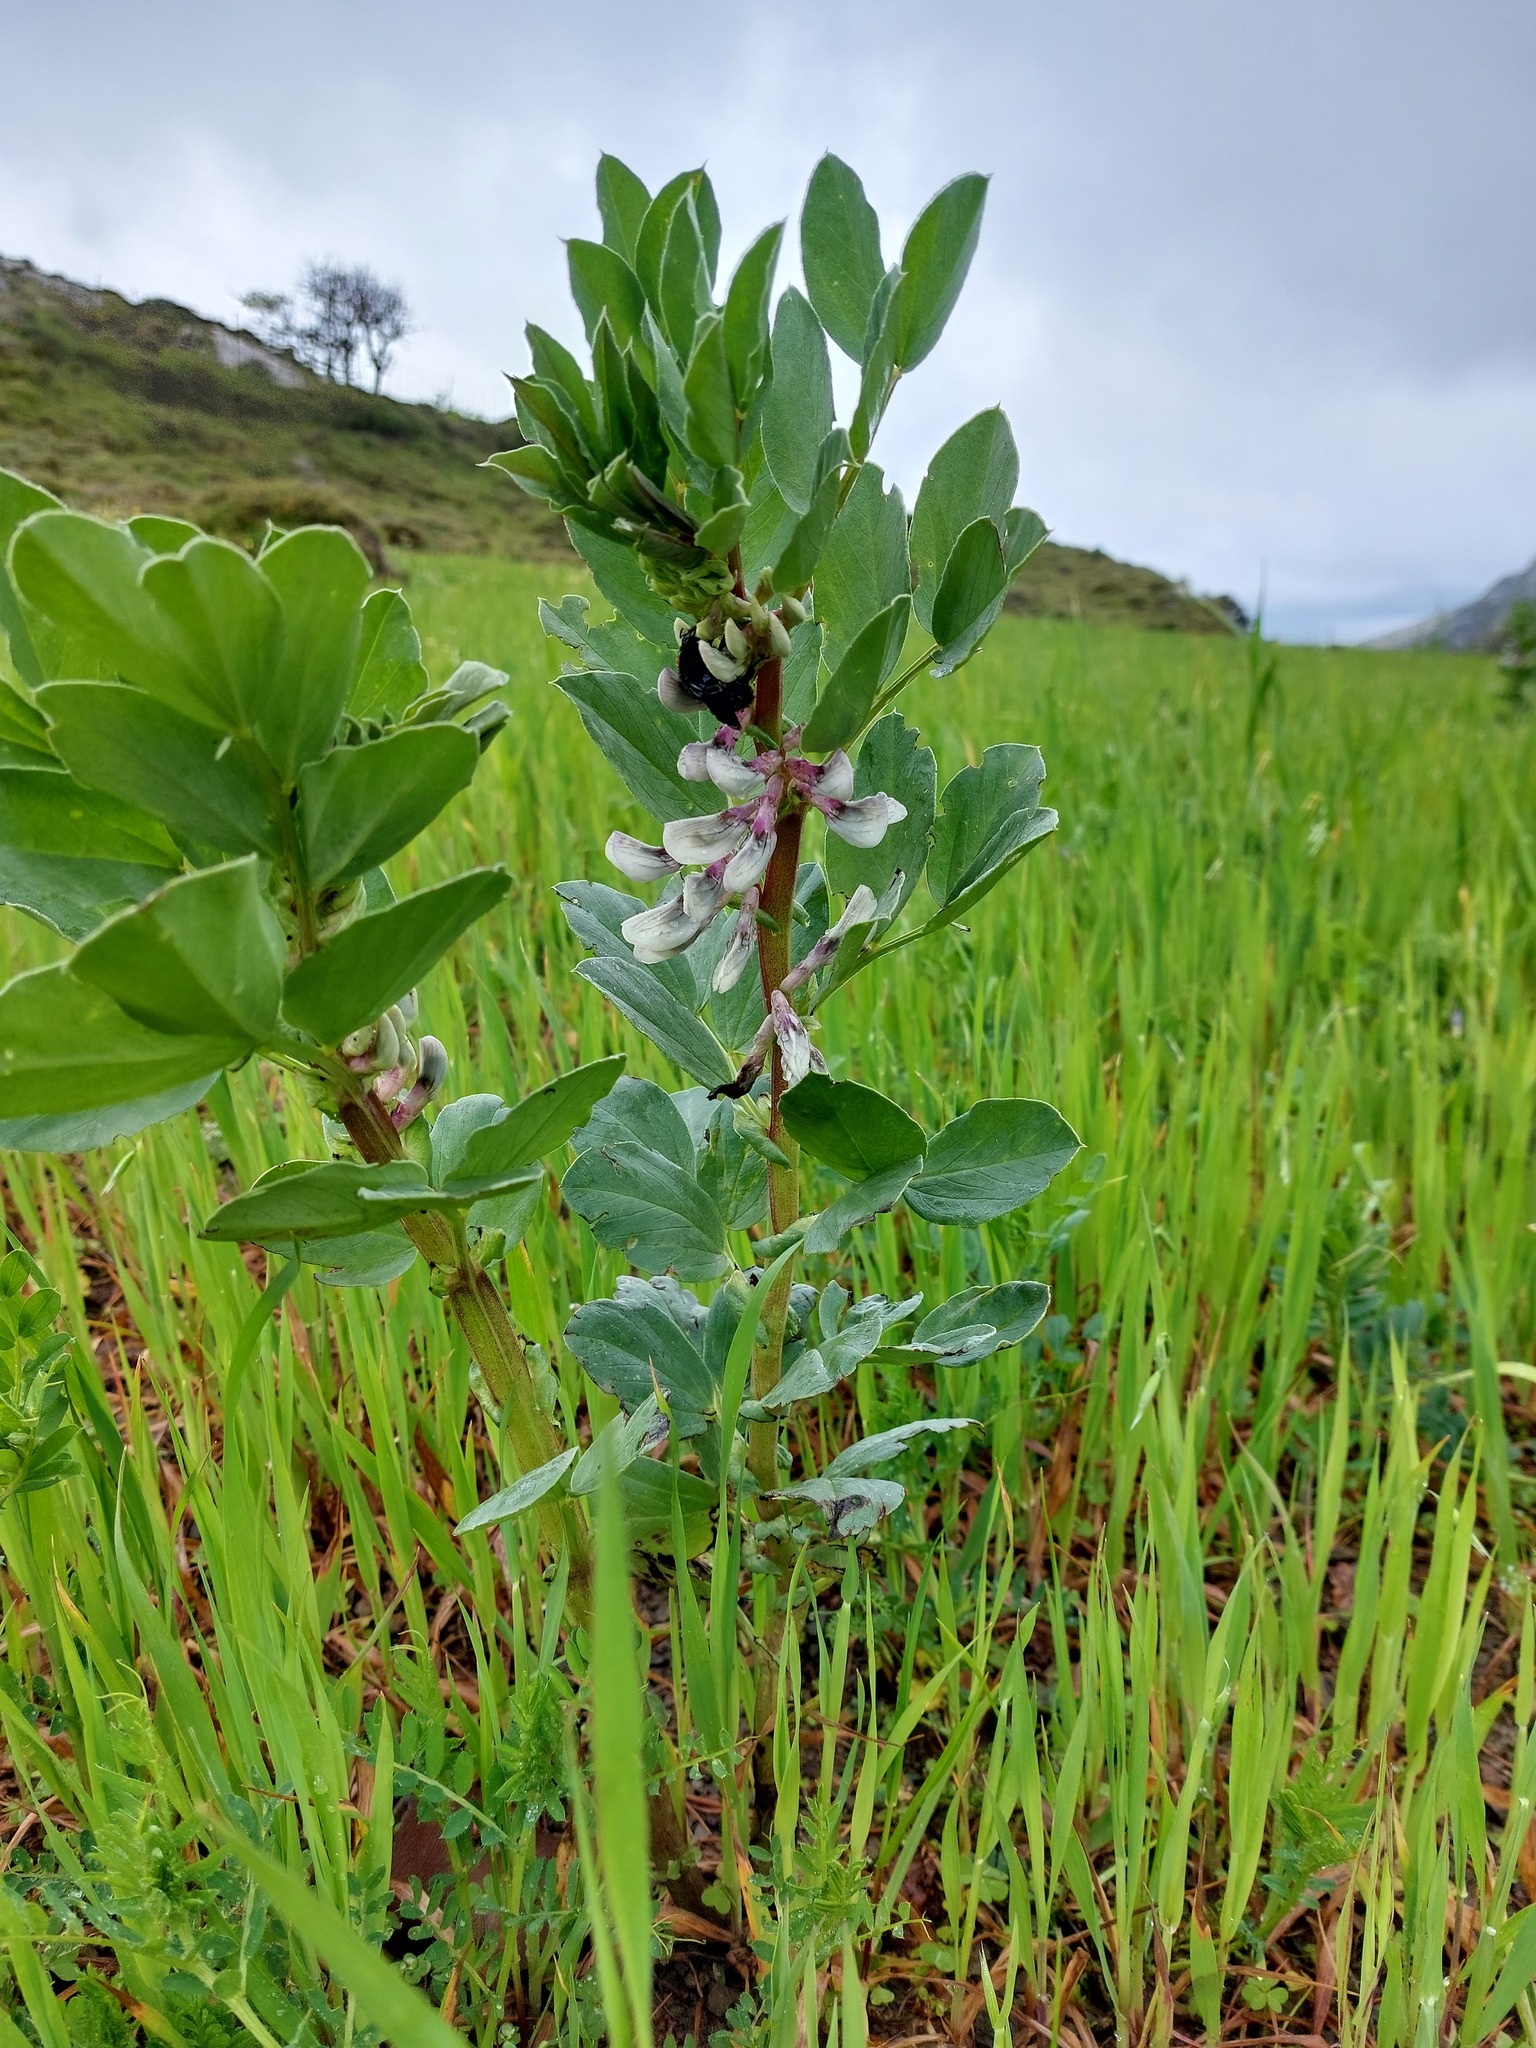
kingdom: Plantae
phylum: Tracheophyta
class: Magnoliopsida
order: Fabales
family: Fabaceae
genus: Vicia
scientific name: Vicia faba
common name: Broad bean
